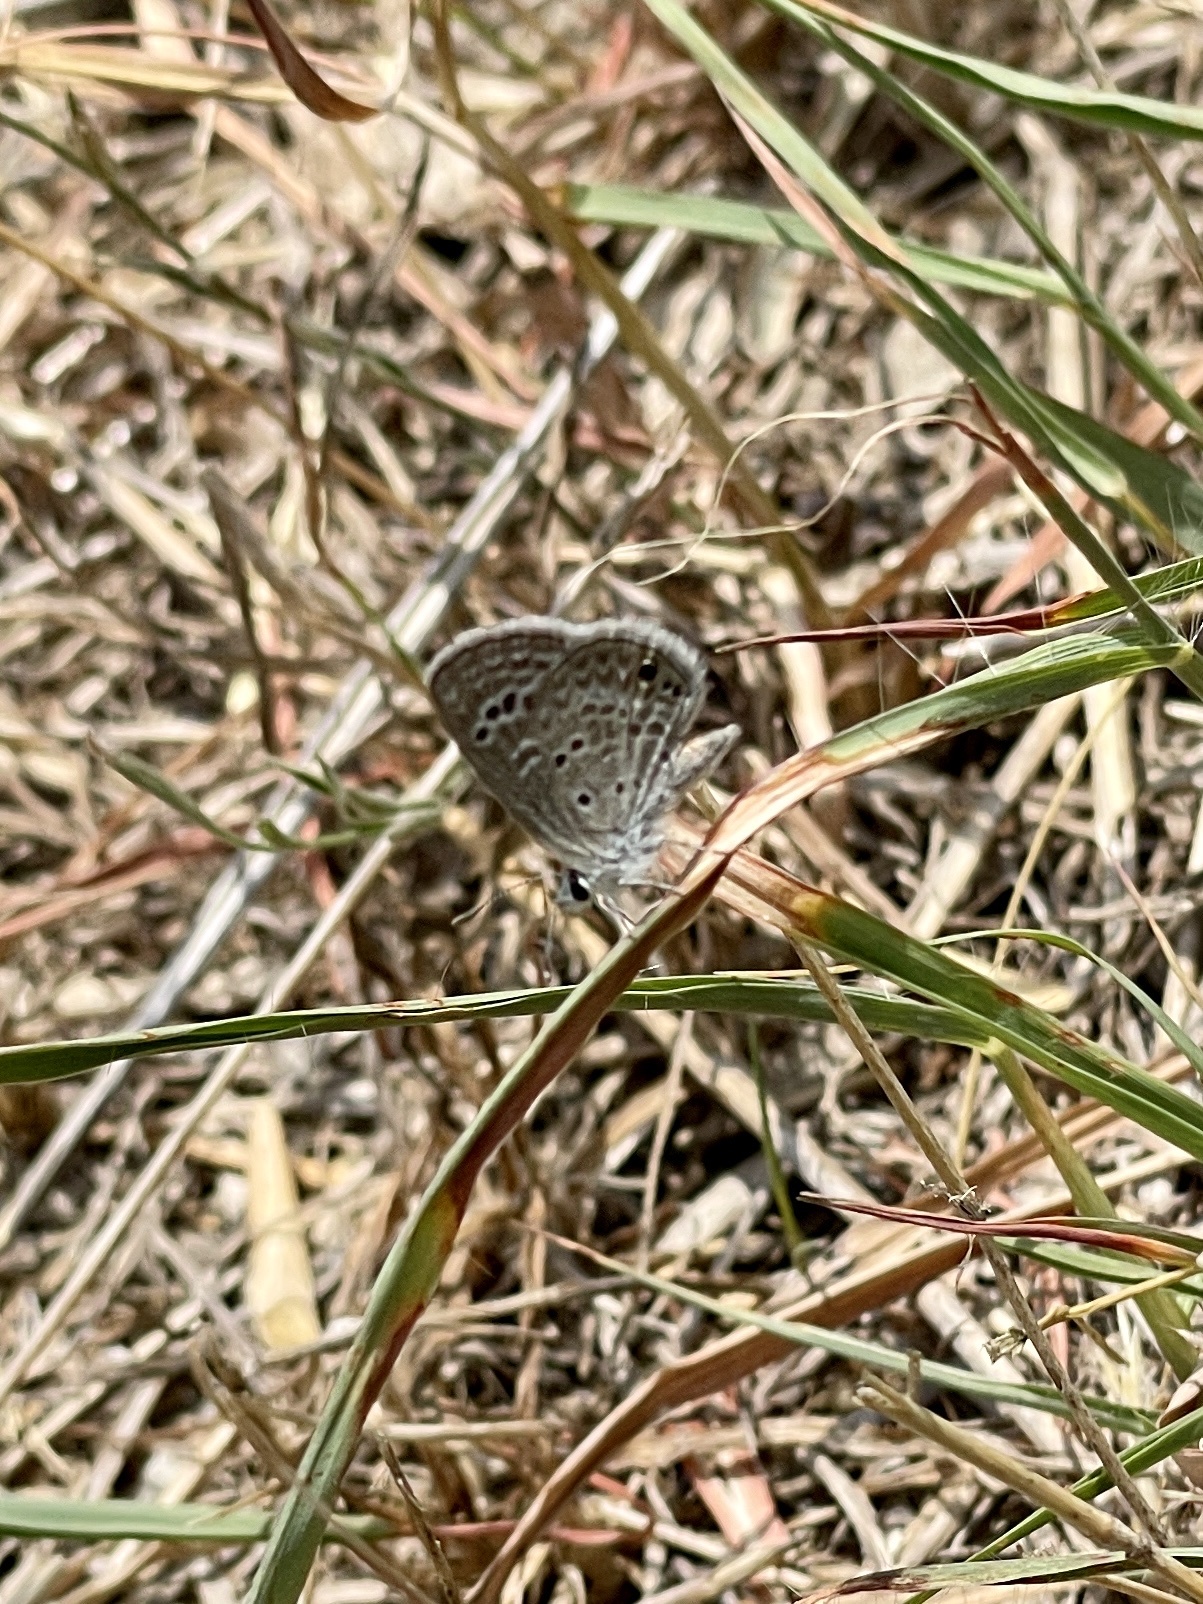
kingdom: Animalia
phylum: Arthropoda
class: Insecta
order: Lepidoptera
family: Lycaenidae
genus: Echinargus
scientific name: Echinargus isola
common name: Reakirt's blue
